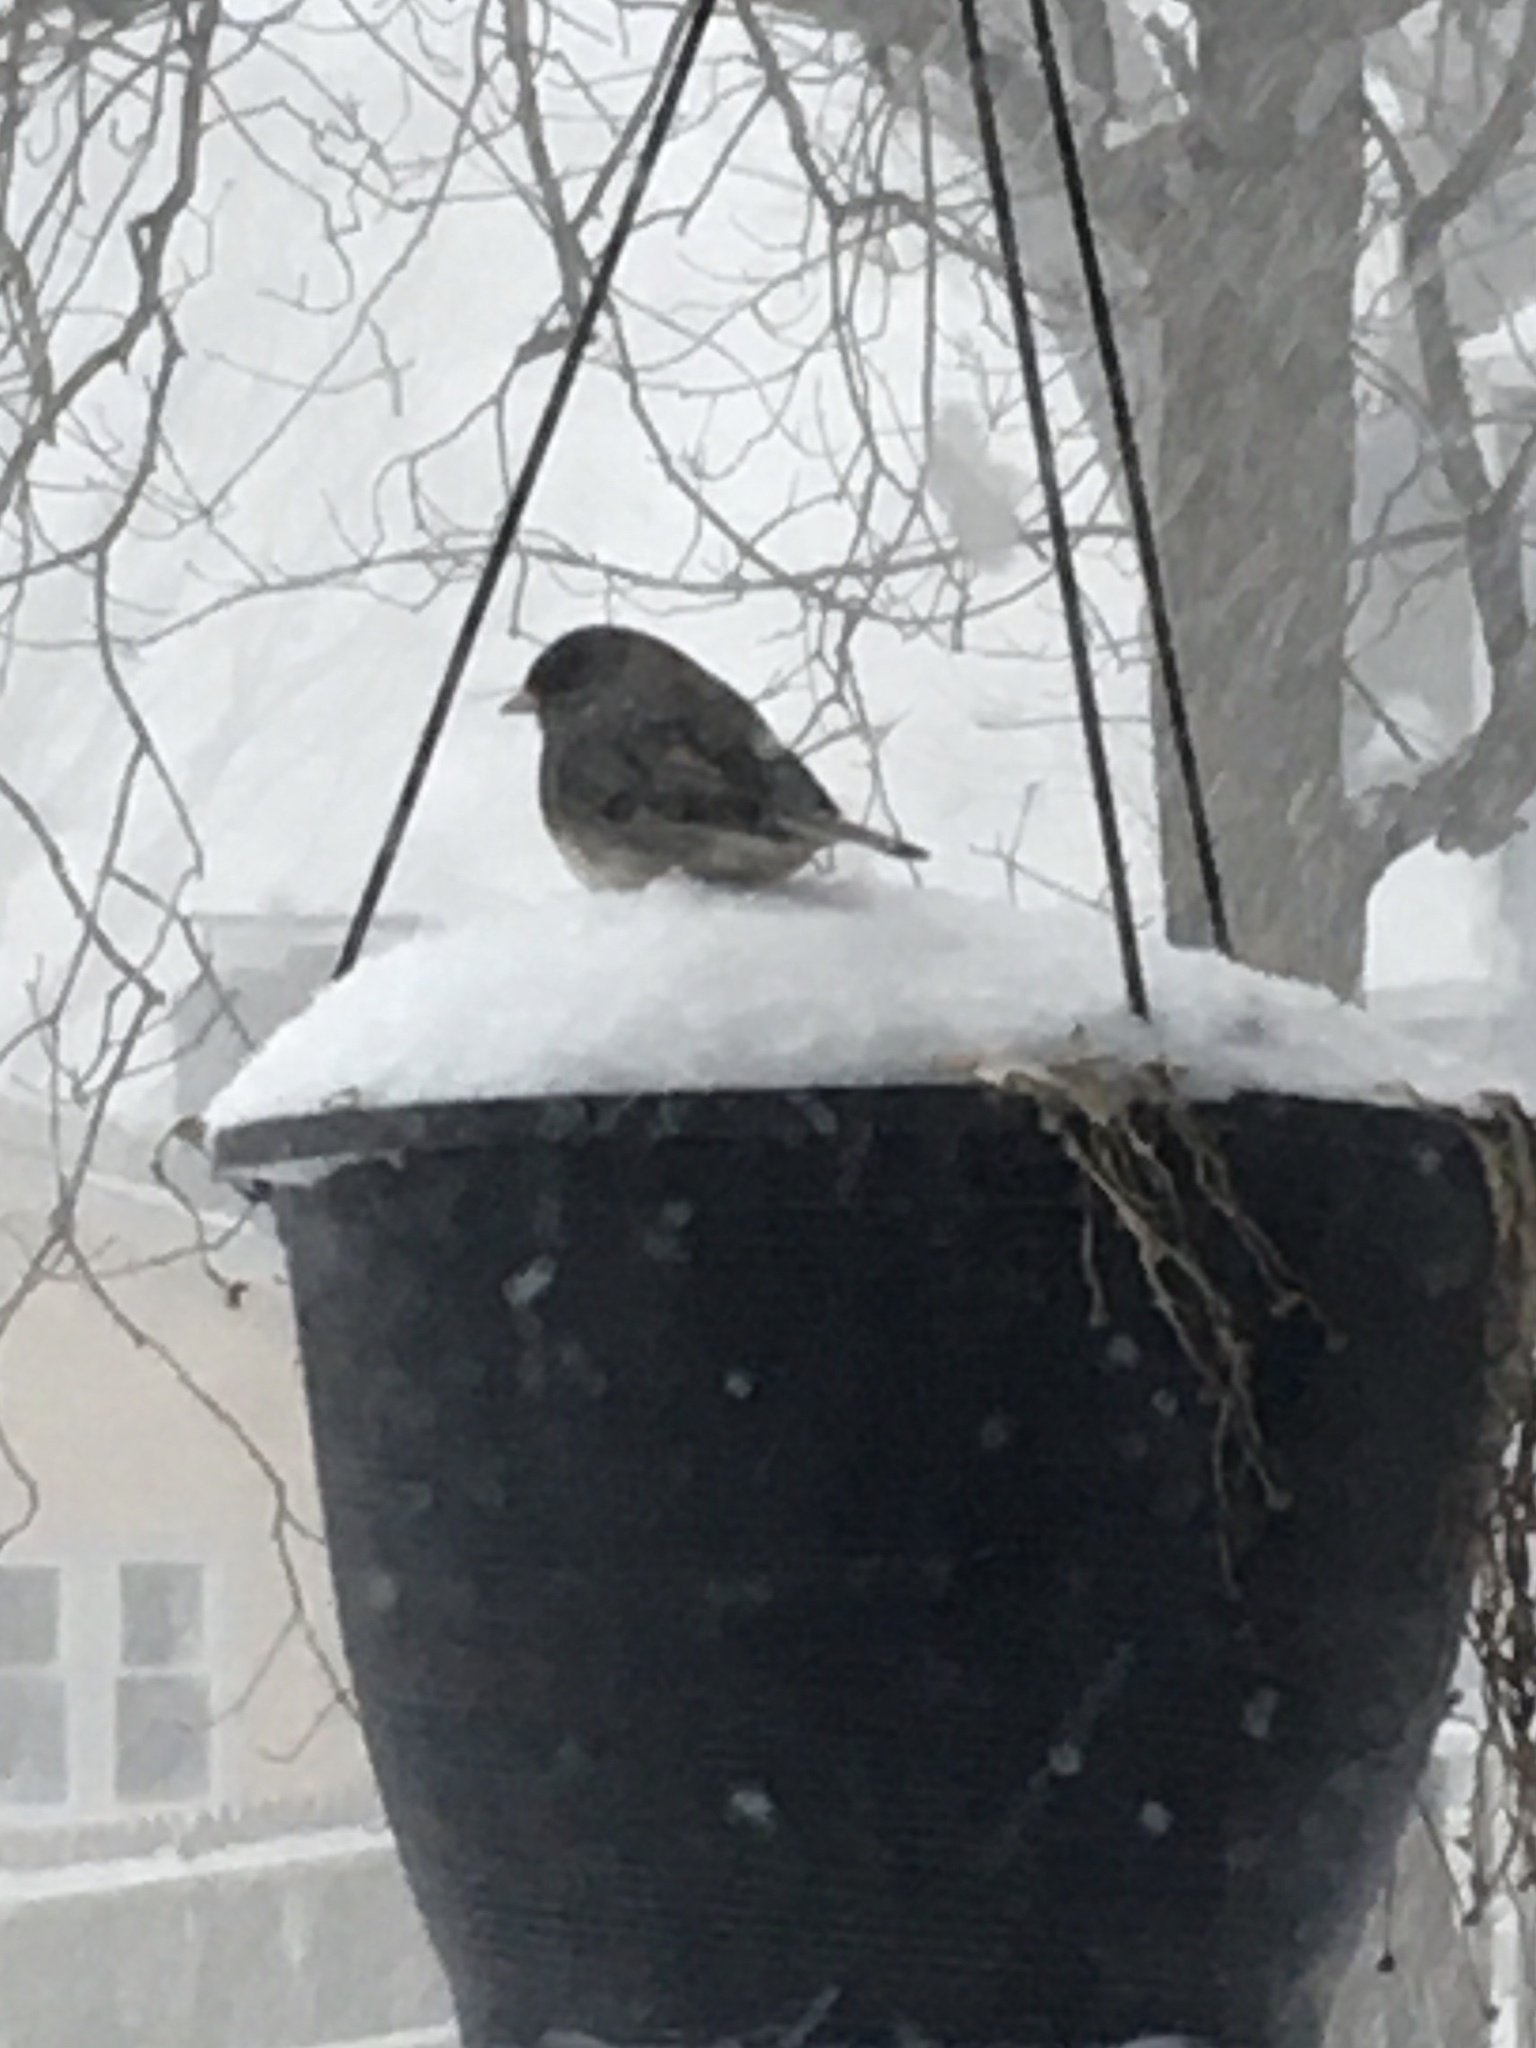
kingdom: Animalia
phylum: Chordata
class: Aves
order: Passeriformes
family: Passerellidae
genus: Junco
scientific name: Junco hyemalis
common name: Dark-eyed junco
